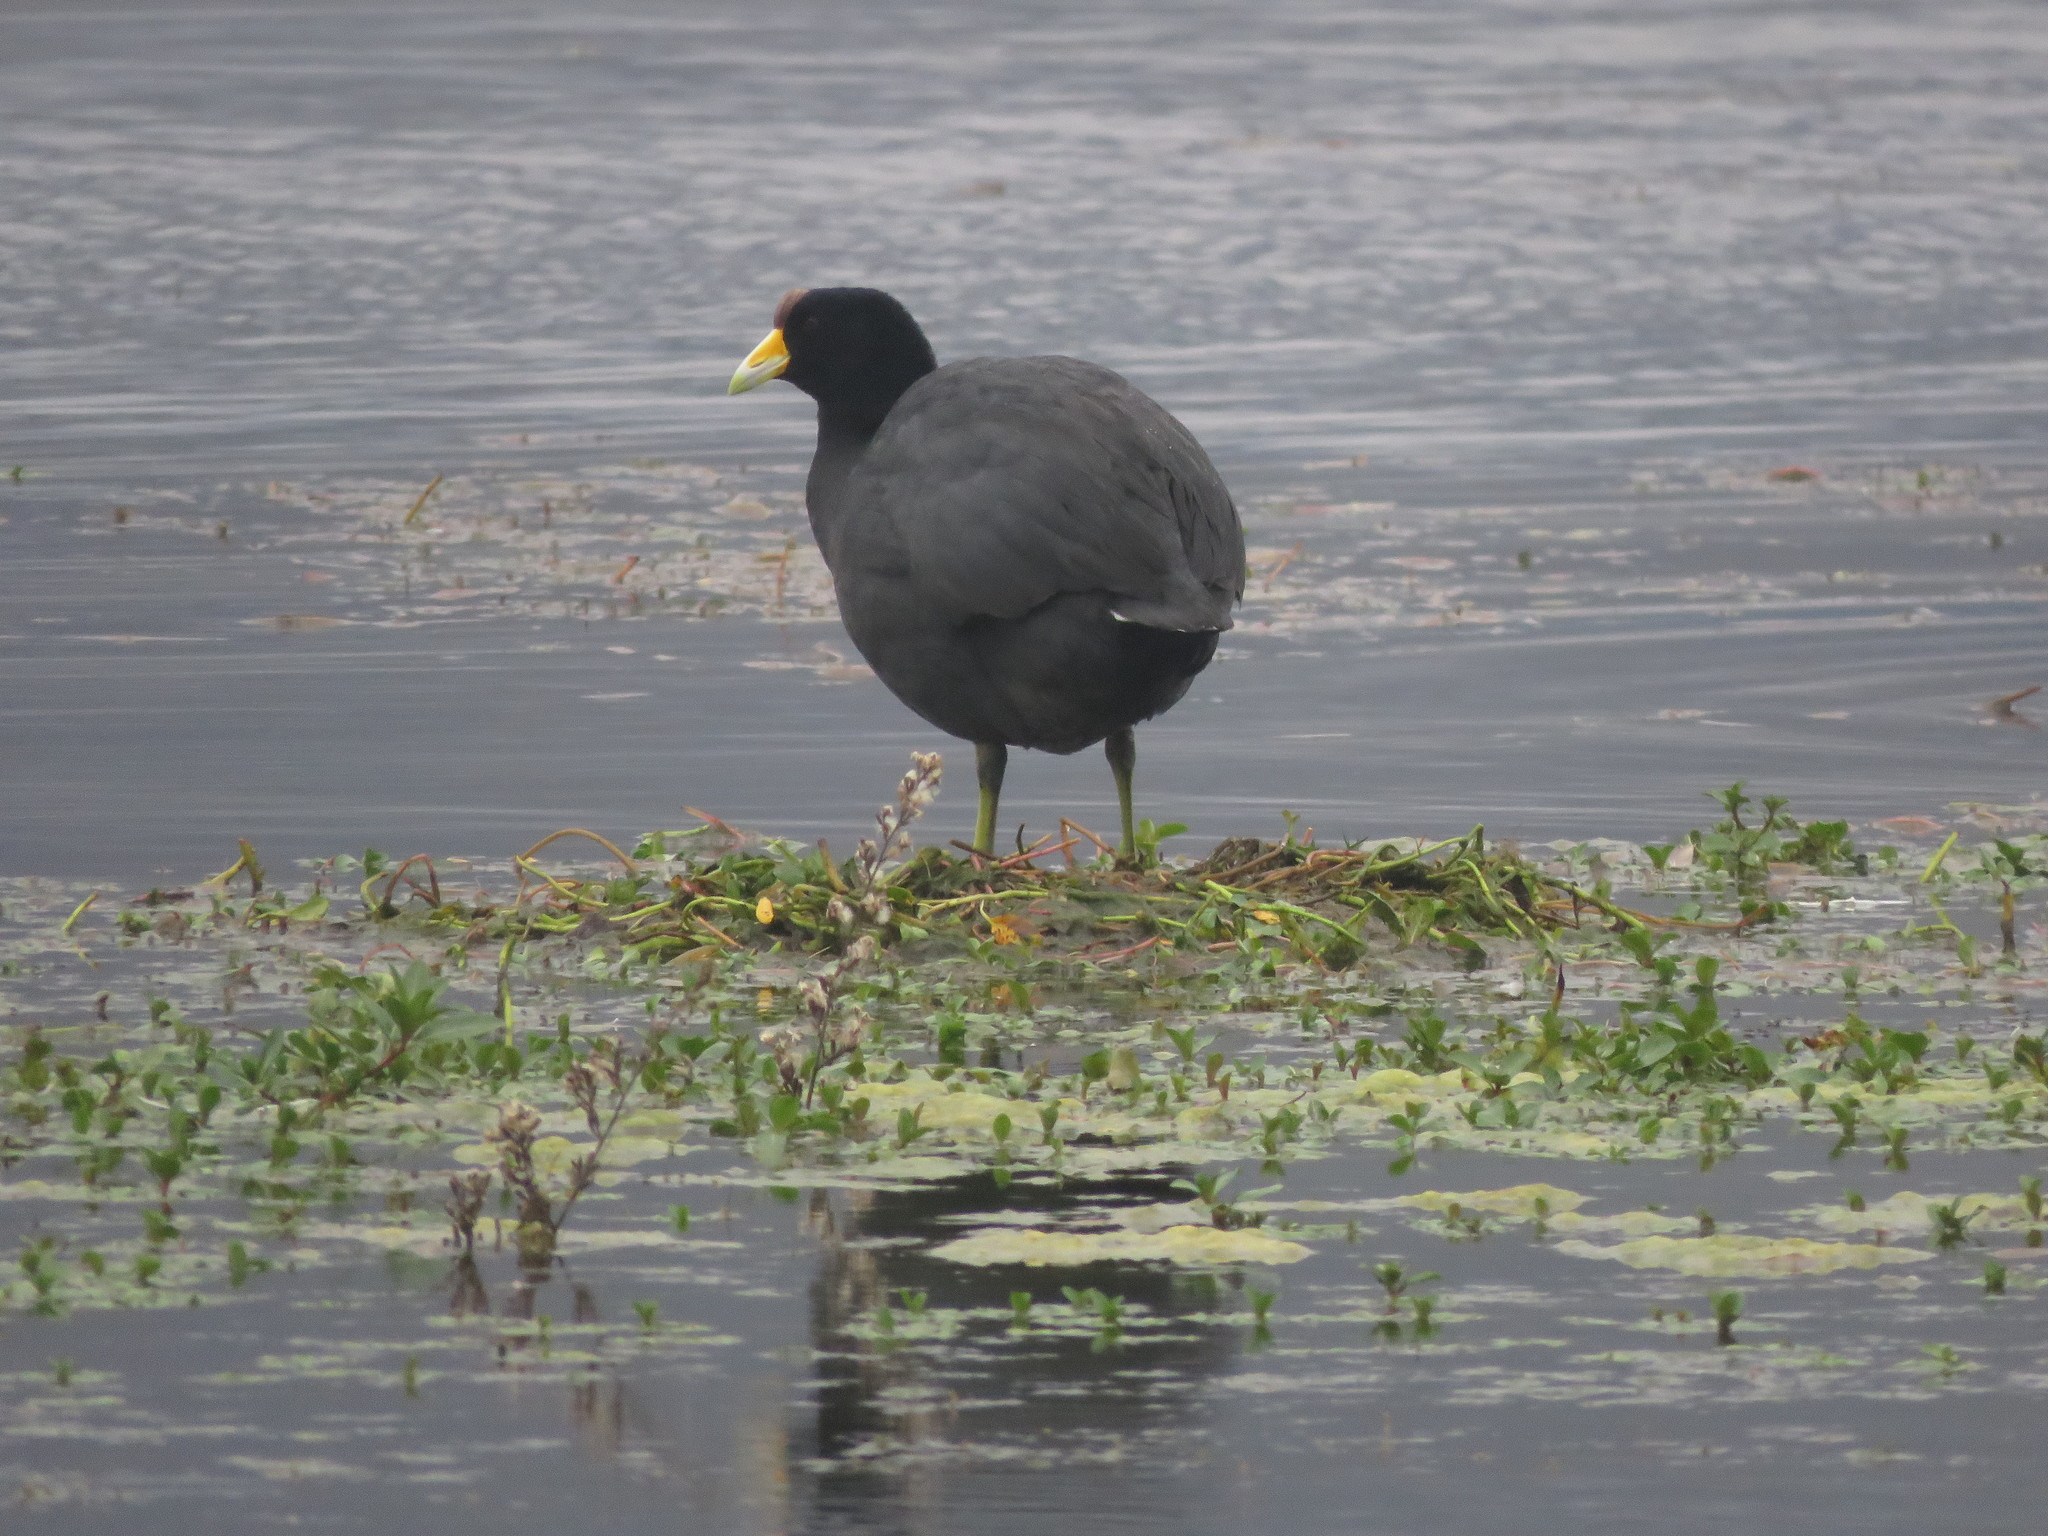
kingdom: Animalia
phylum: Chordata
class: Aves
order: Gruiformes
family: Rallidae
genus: Fulica
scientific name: Fulica ardesiaca
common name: Andean coot
